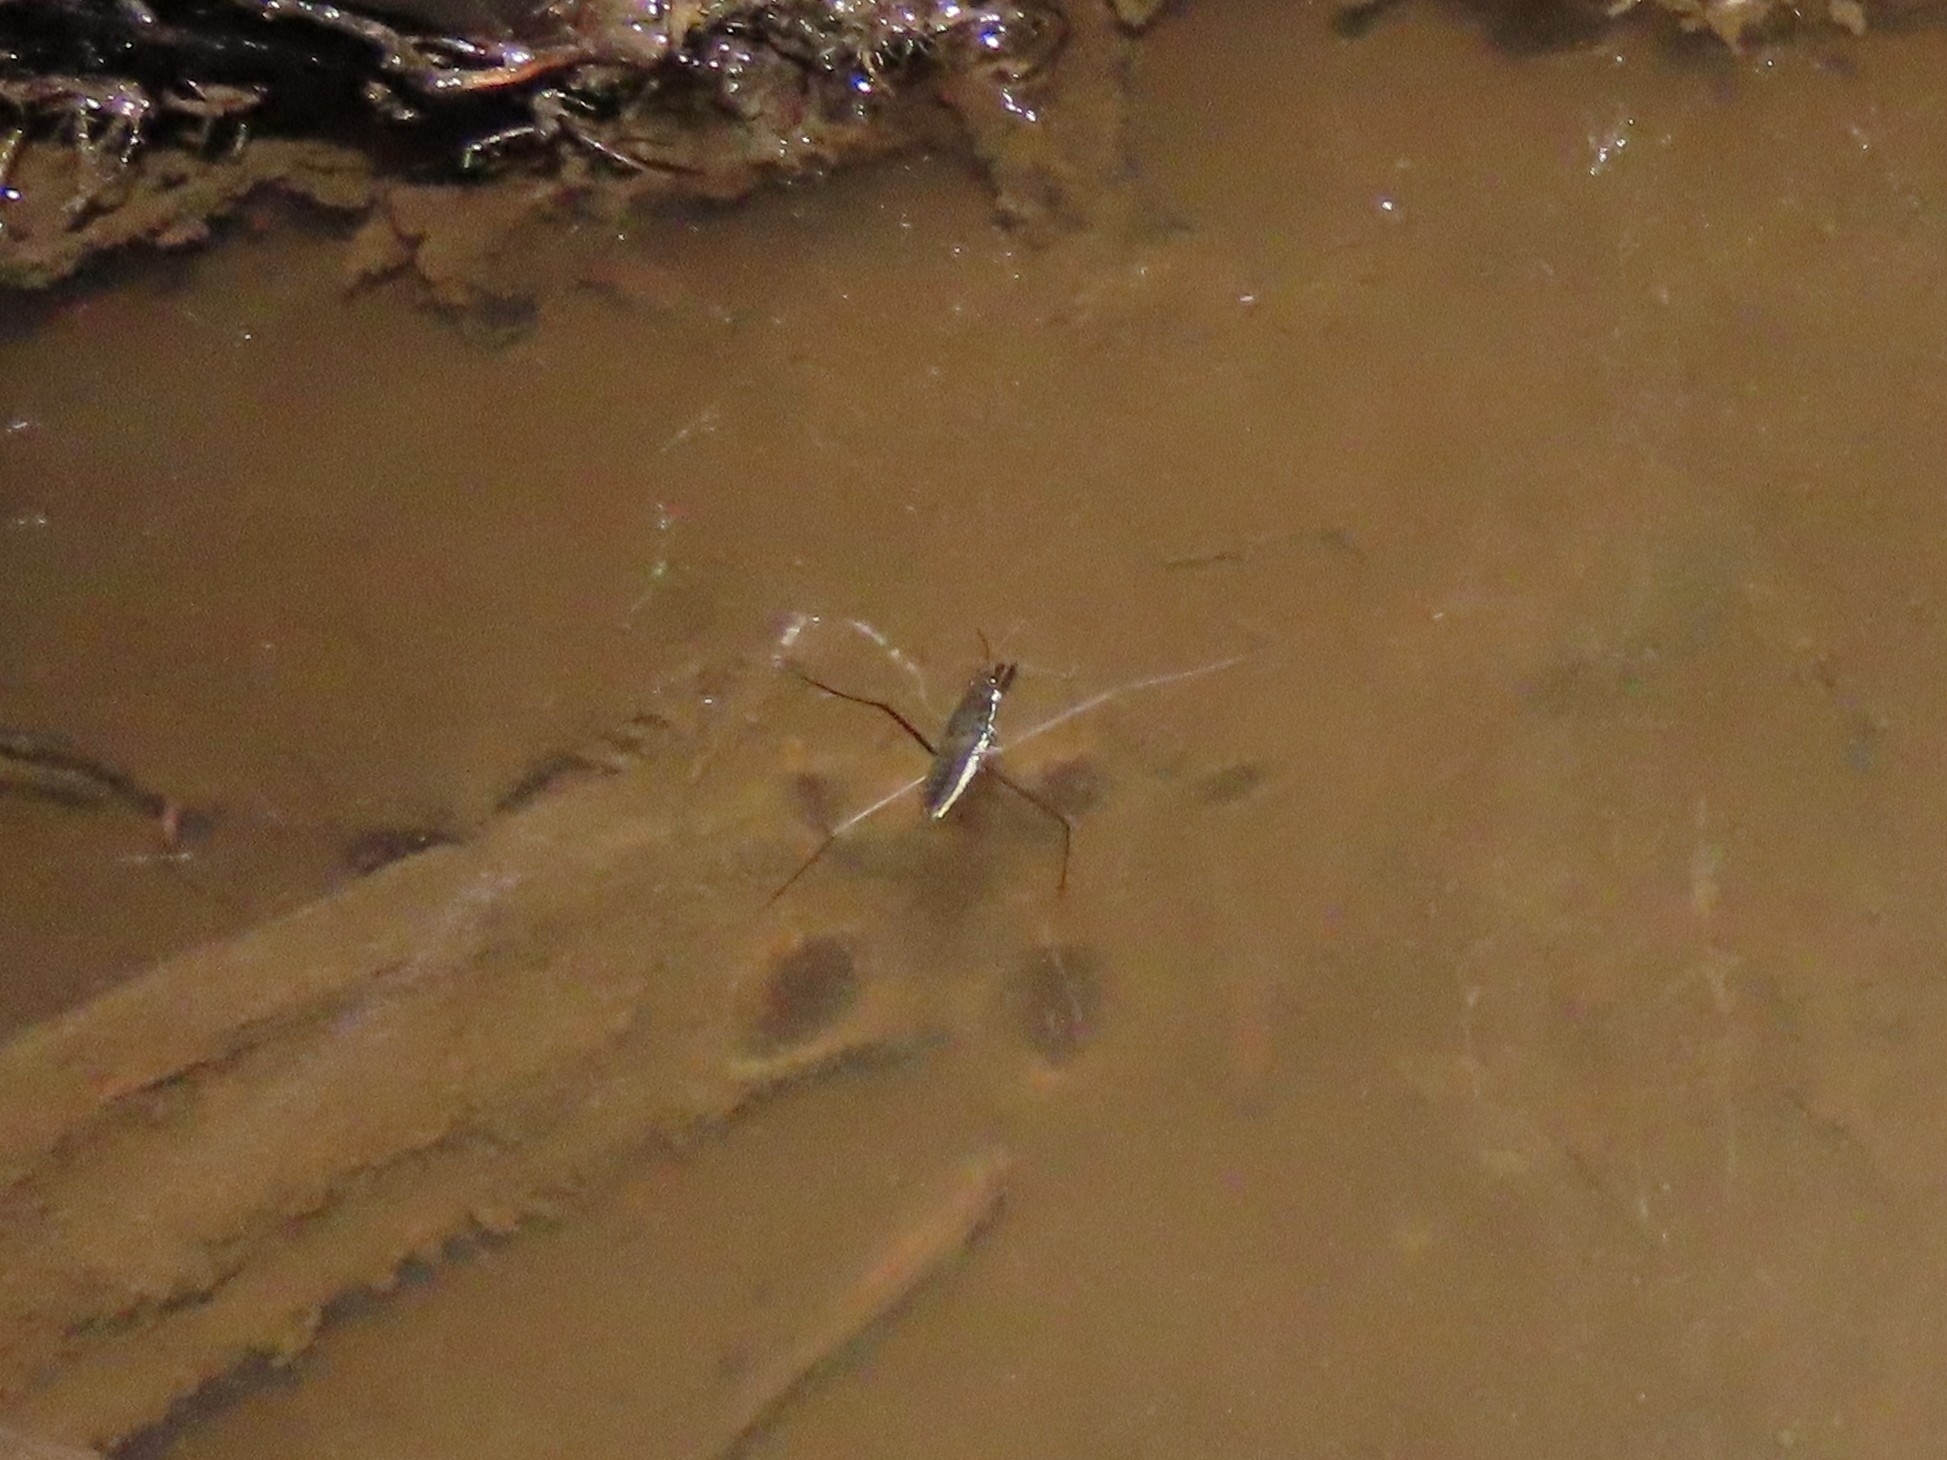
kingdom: Animalia
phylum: Arthropoda
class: Insecta
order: Hemiptera
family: Gerridae
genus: Aquarius
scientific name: Aquarius
